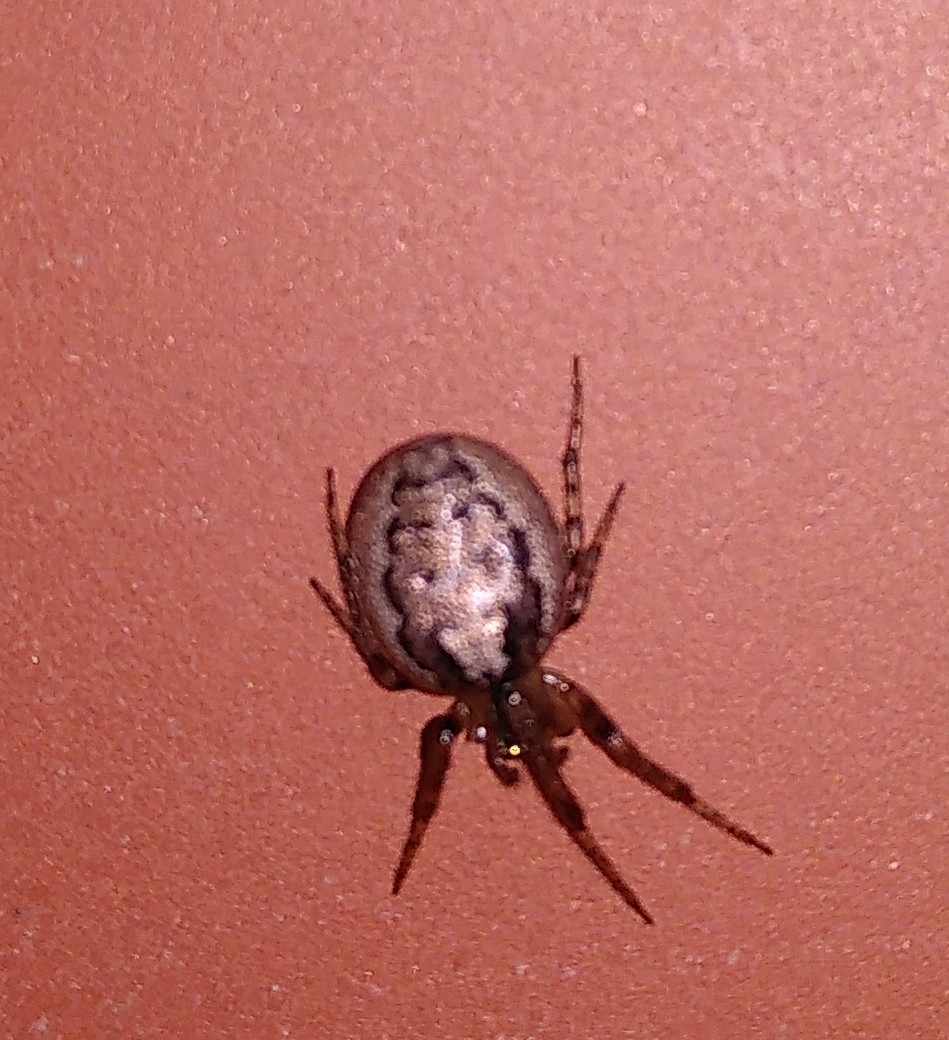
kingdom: Animalia
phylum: Arthropoda
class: Arachnida
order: Araneae
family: Araneidae
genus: Zygiella
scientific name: Zygiella x-notata
